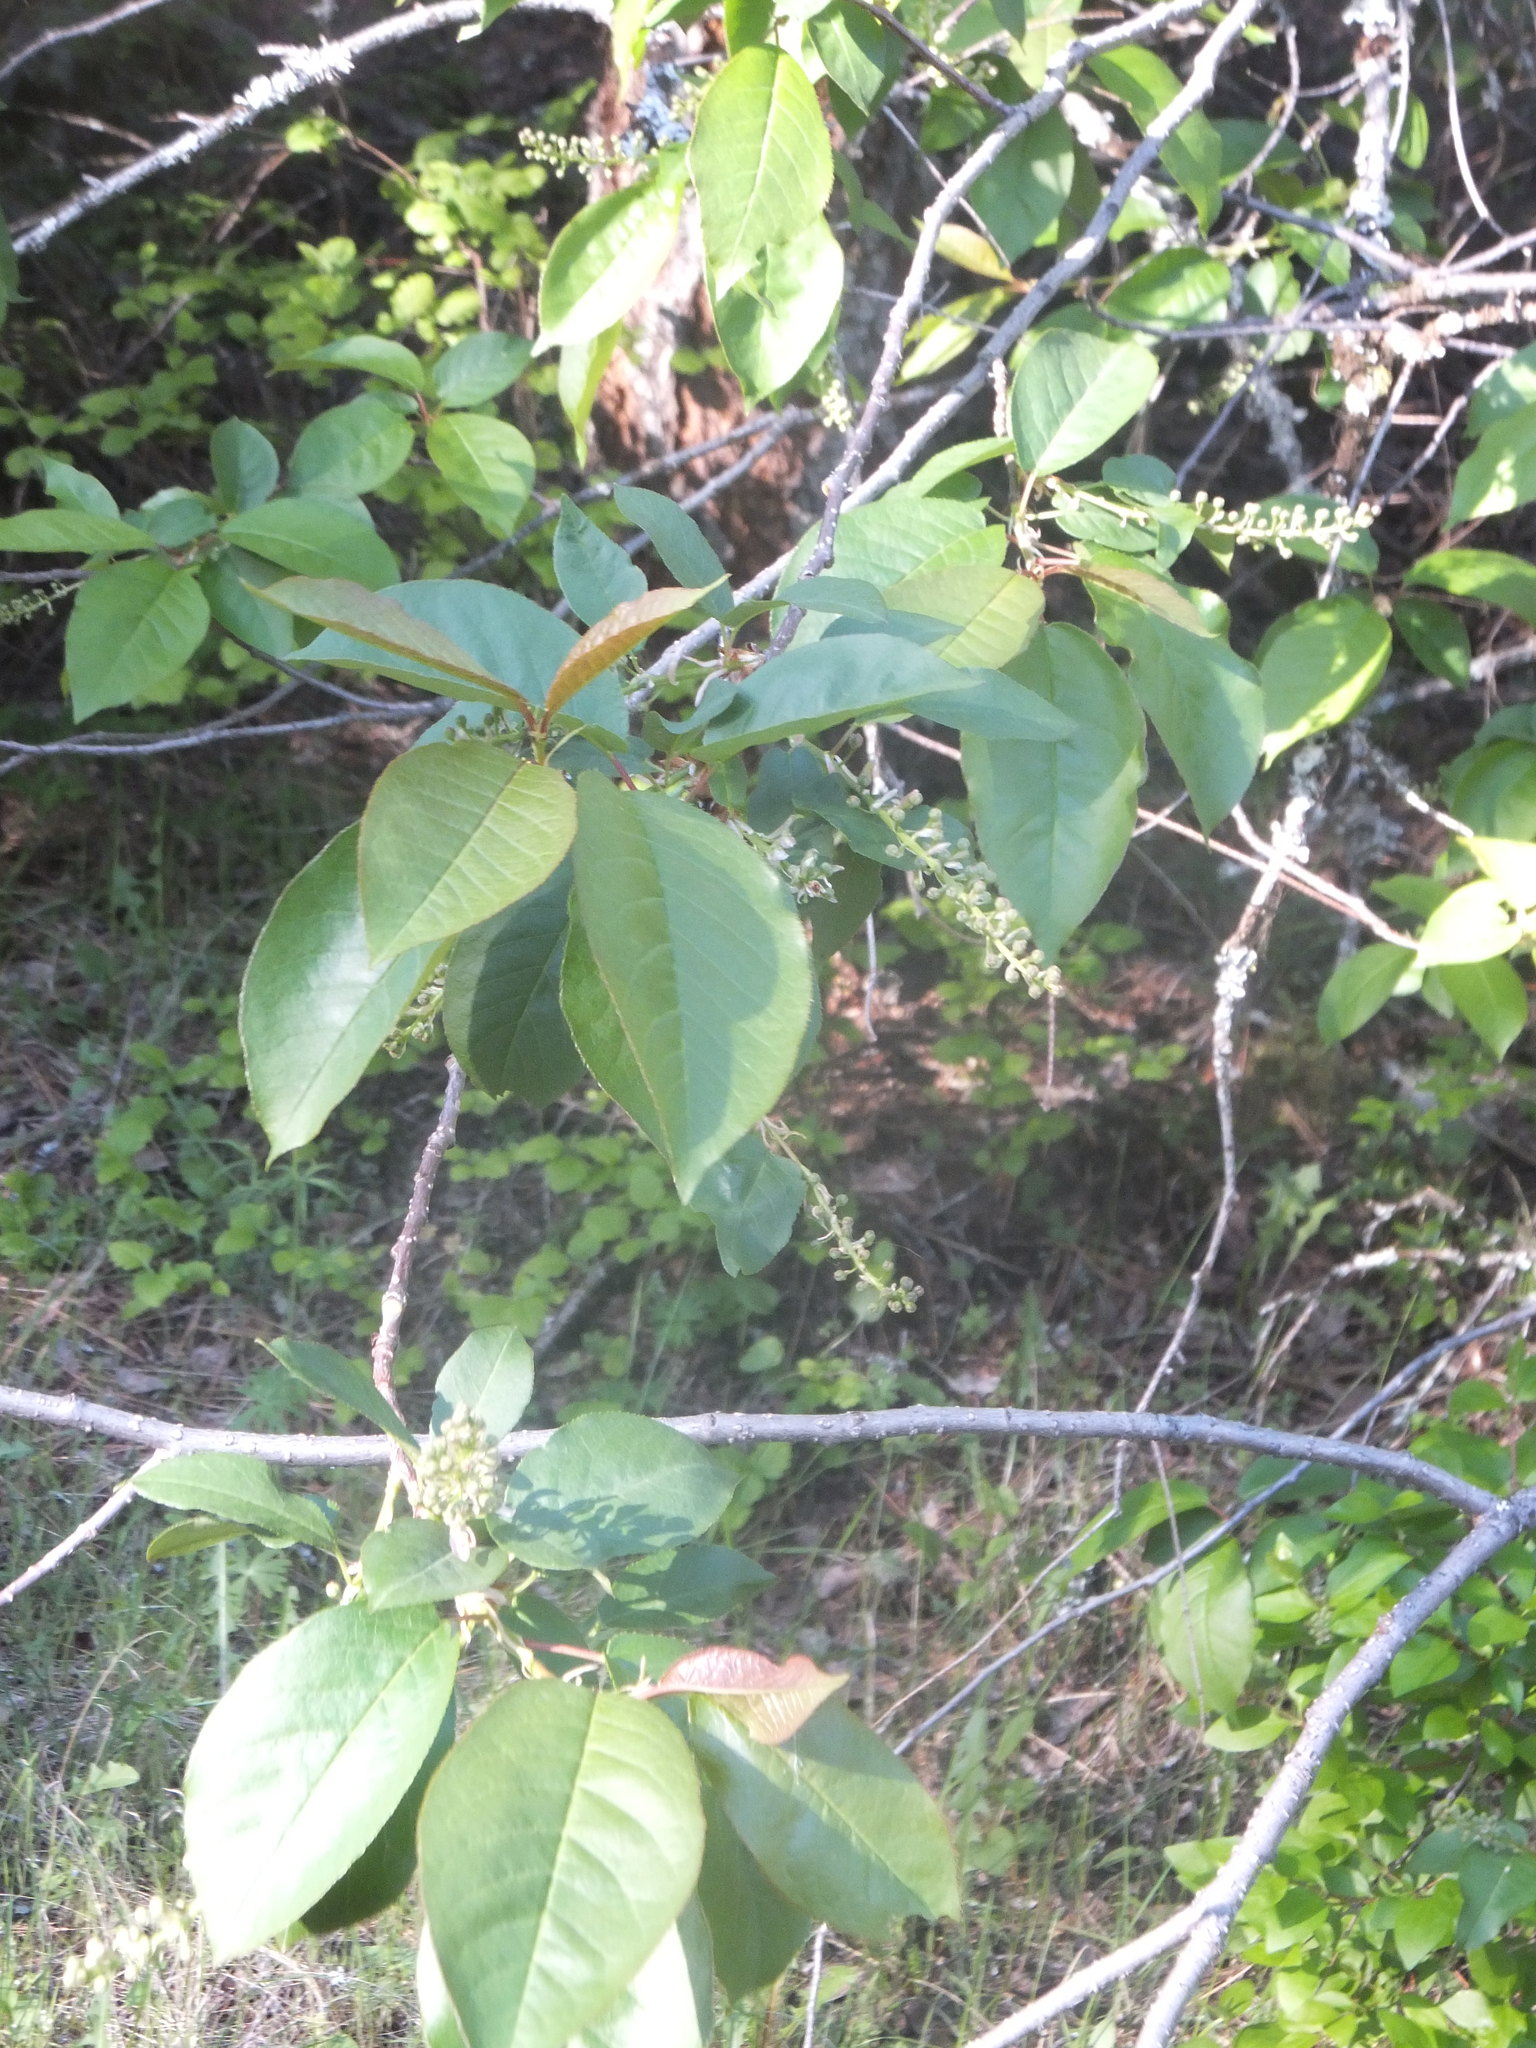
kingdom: Plantae
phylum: Tracheophyta
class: Magnoliopsida
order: Rosales
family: Rosaceae
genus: Prunus
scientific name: Prunus virginiana
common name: Chokecherry
